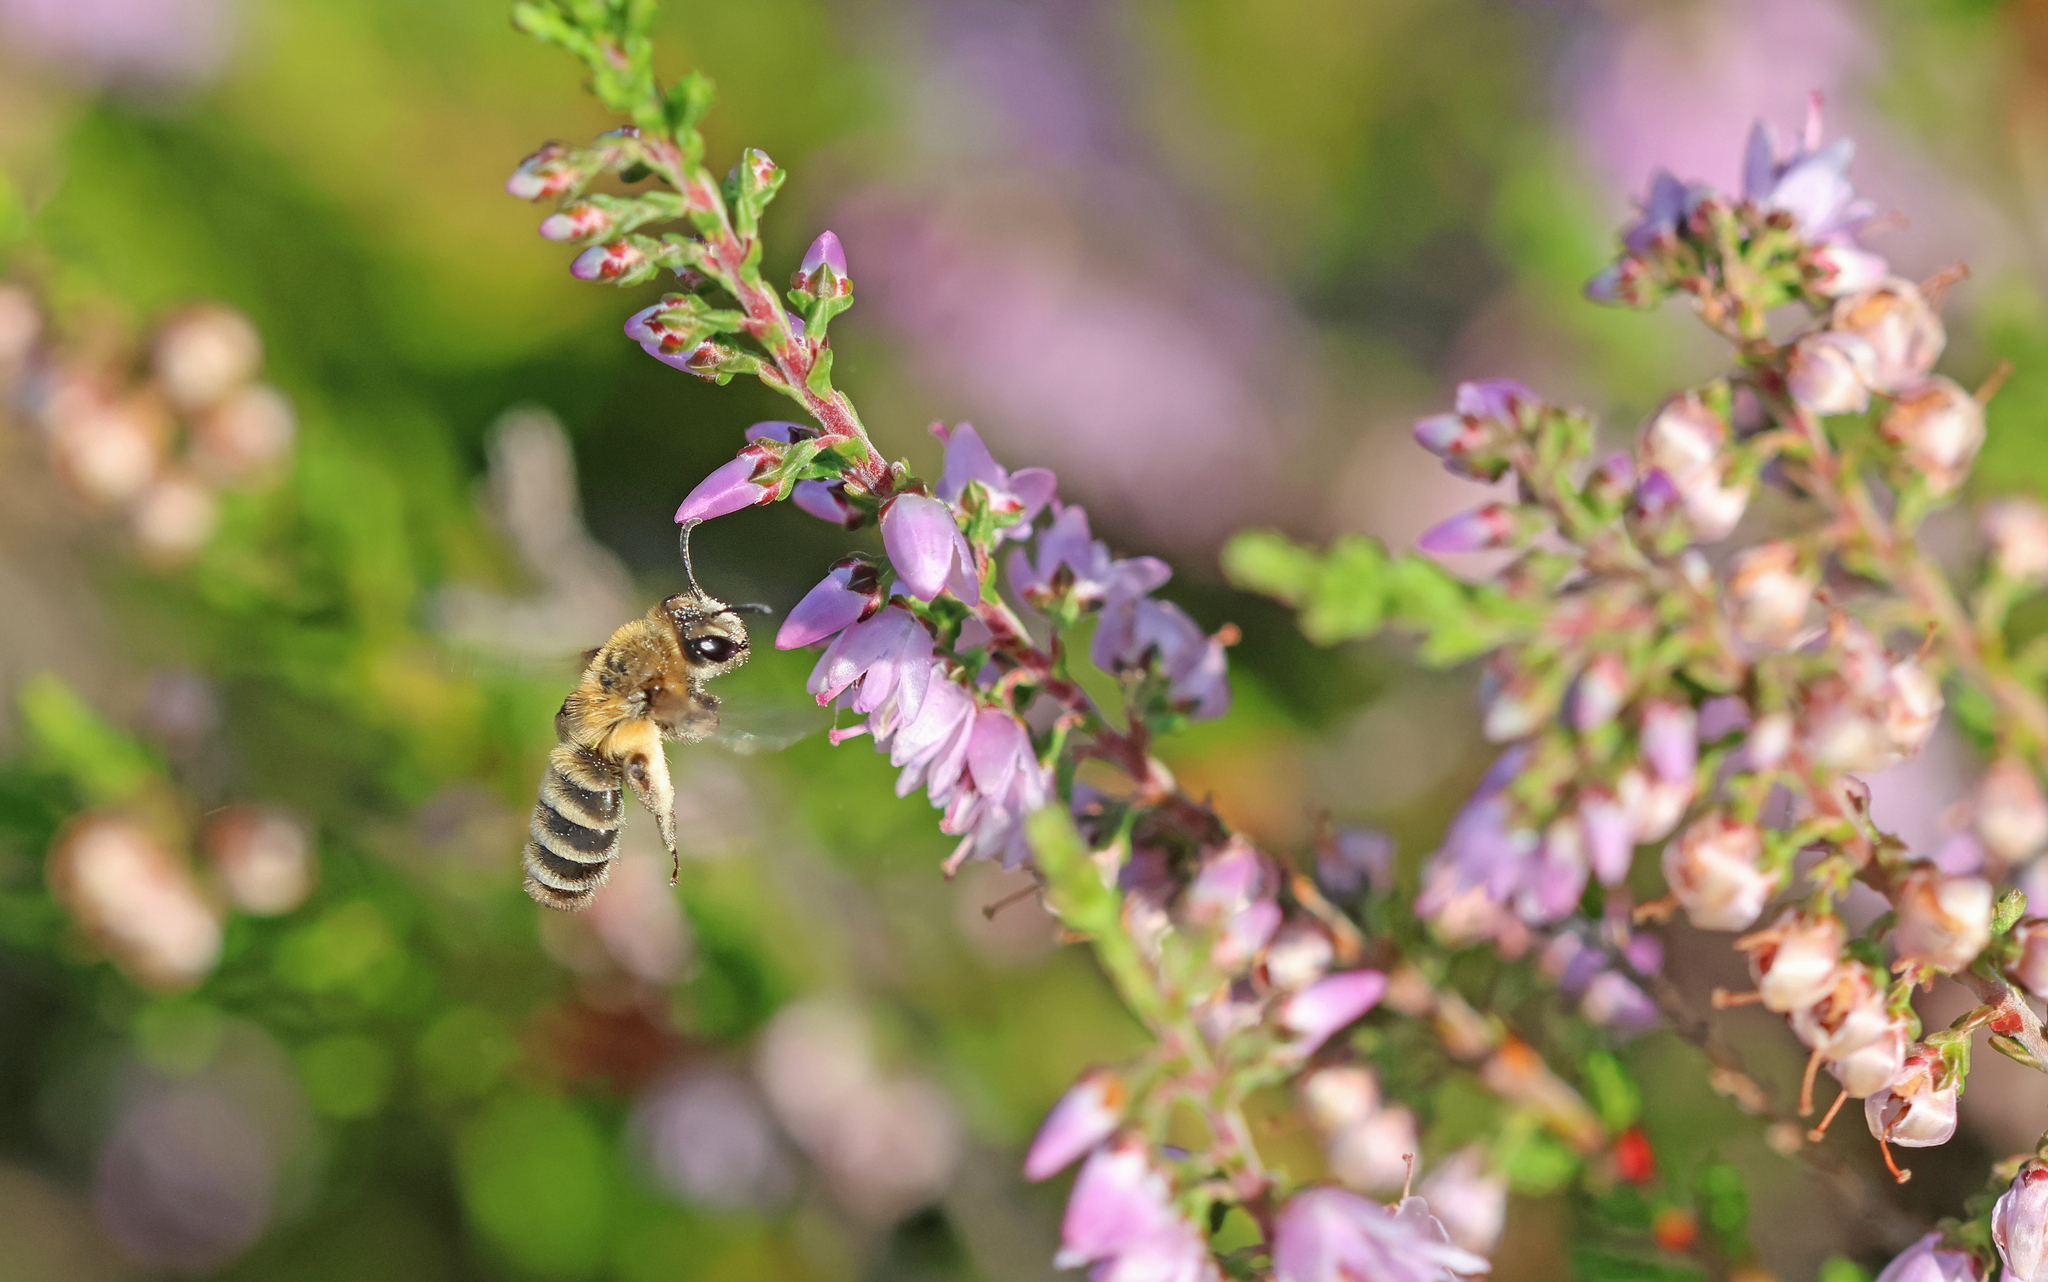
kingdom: Animalia
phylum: Arthropoda
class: Insecta
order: Hymenoptera
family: Andrenidae
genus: Andrena
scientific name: Andrena fuscipes
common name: Heather mining bee
